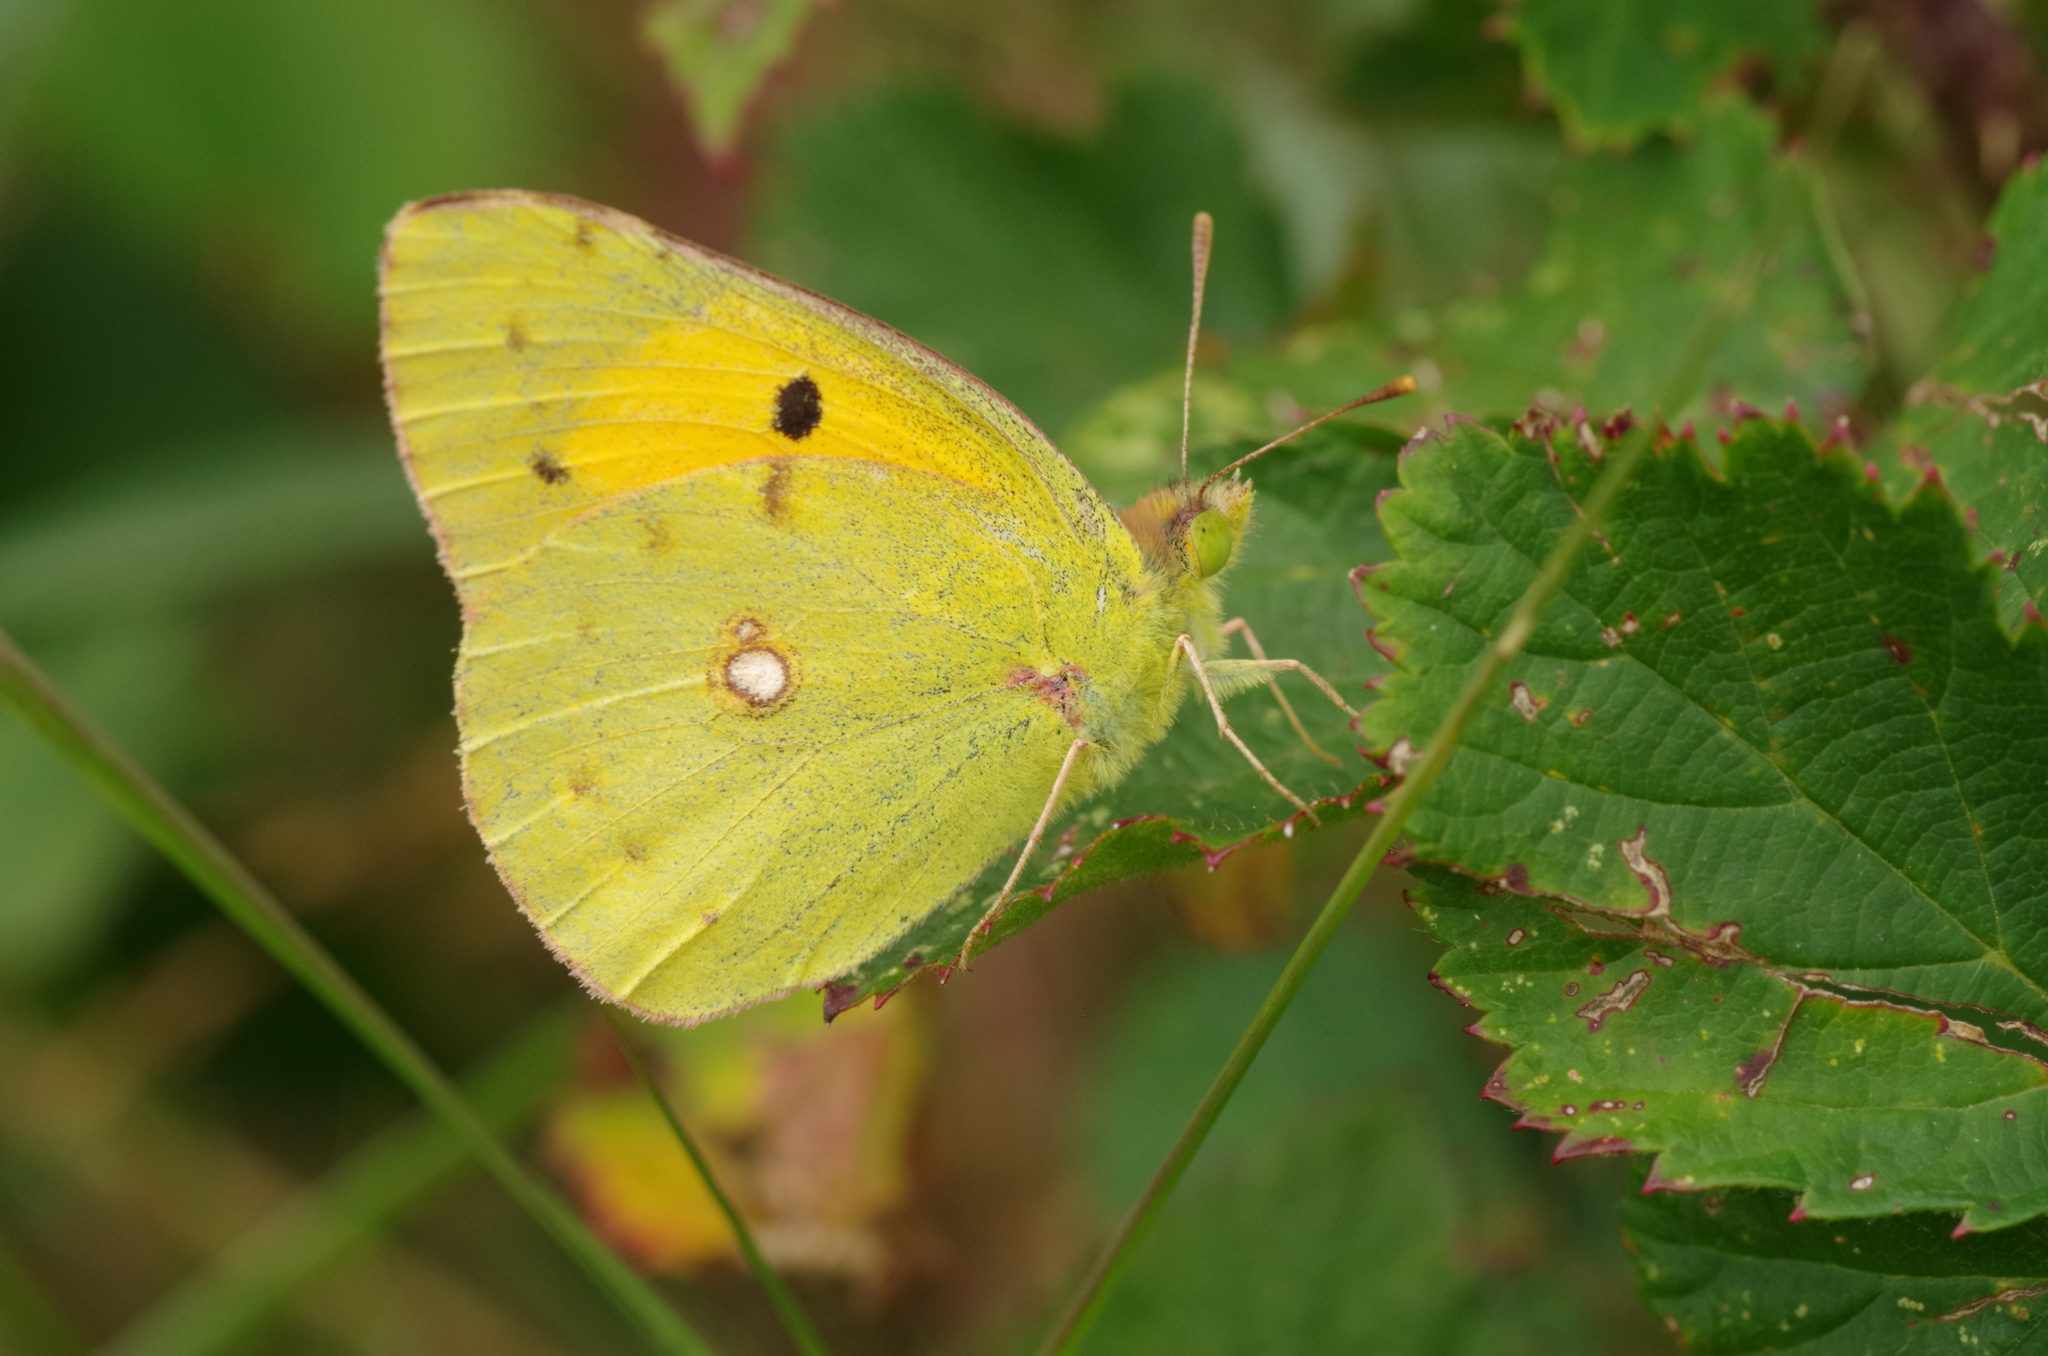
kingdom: Animalia
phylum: Arthropoda
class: Insecta
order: Lepidoptera
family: Pieridae
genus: Colias
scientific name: Colias croceus
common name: Clouded yellow
